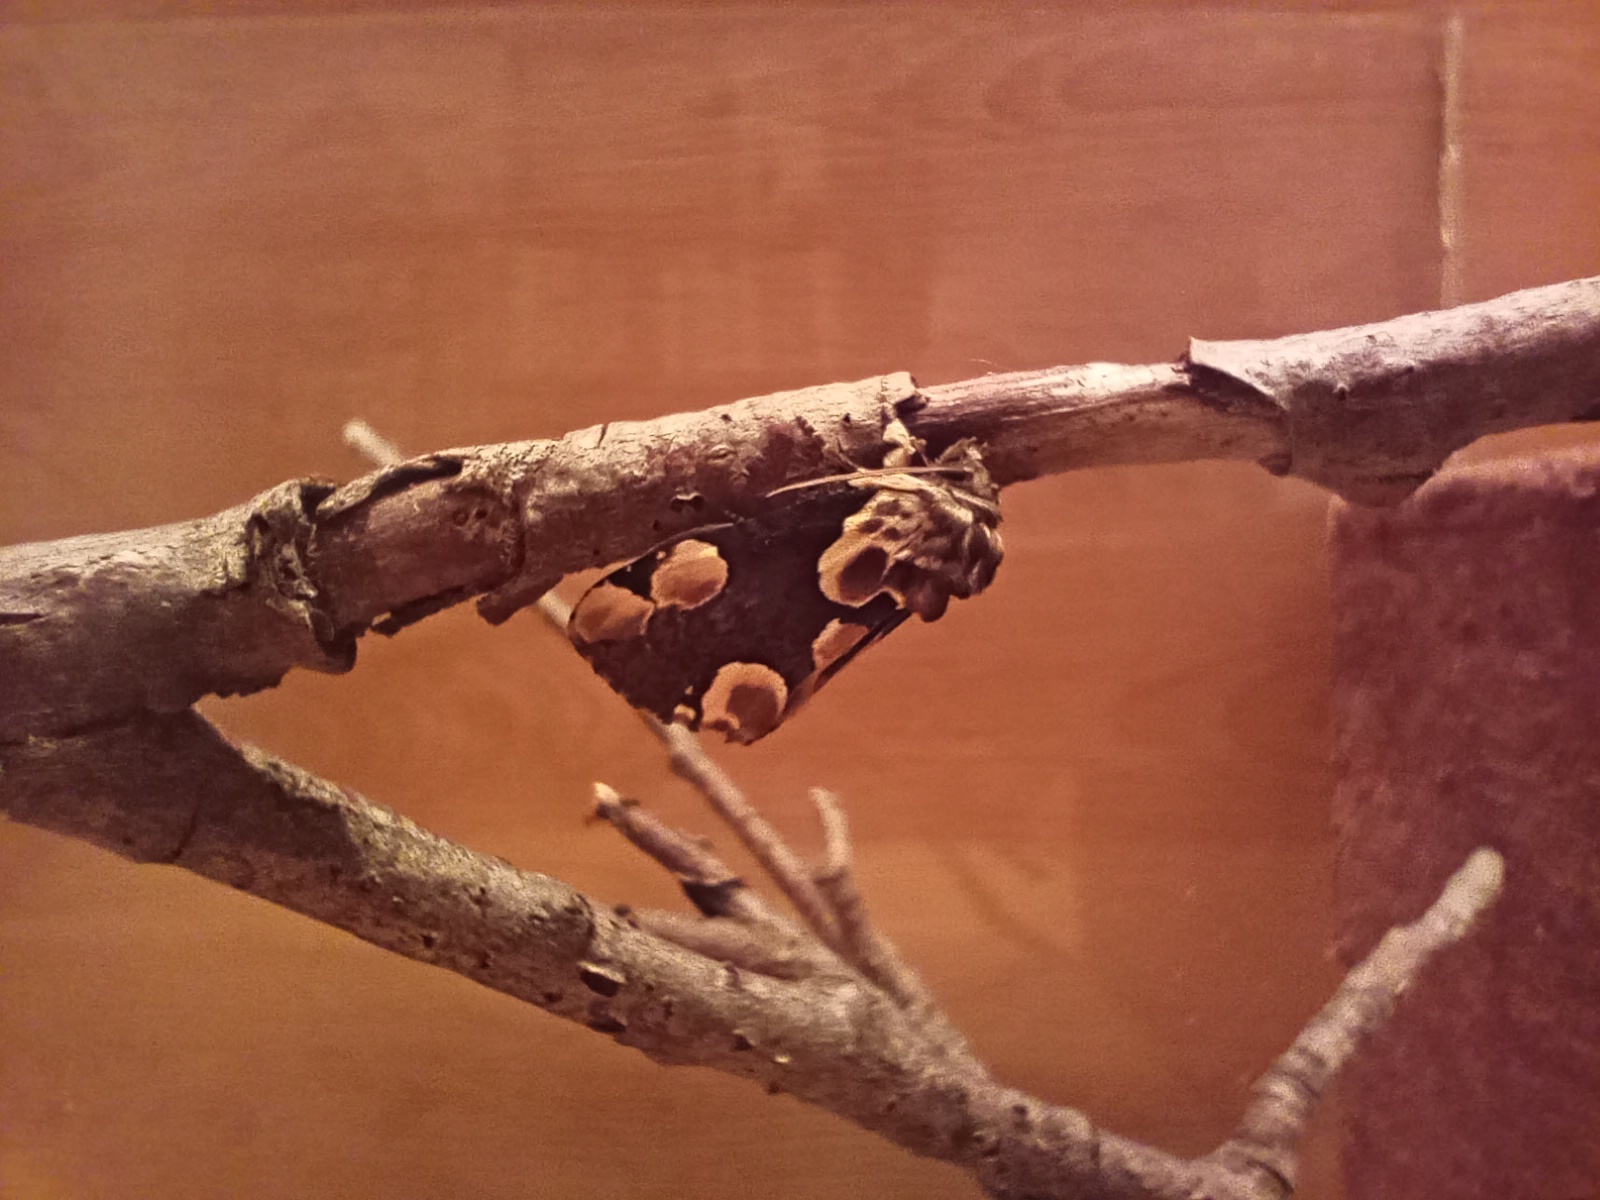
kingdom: Animalia
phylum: Arthropoda
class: Insecta
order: Lepidoptera
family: Drepanidae
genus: Thyatira
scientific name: Thyatira batis
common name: Peach blossom
